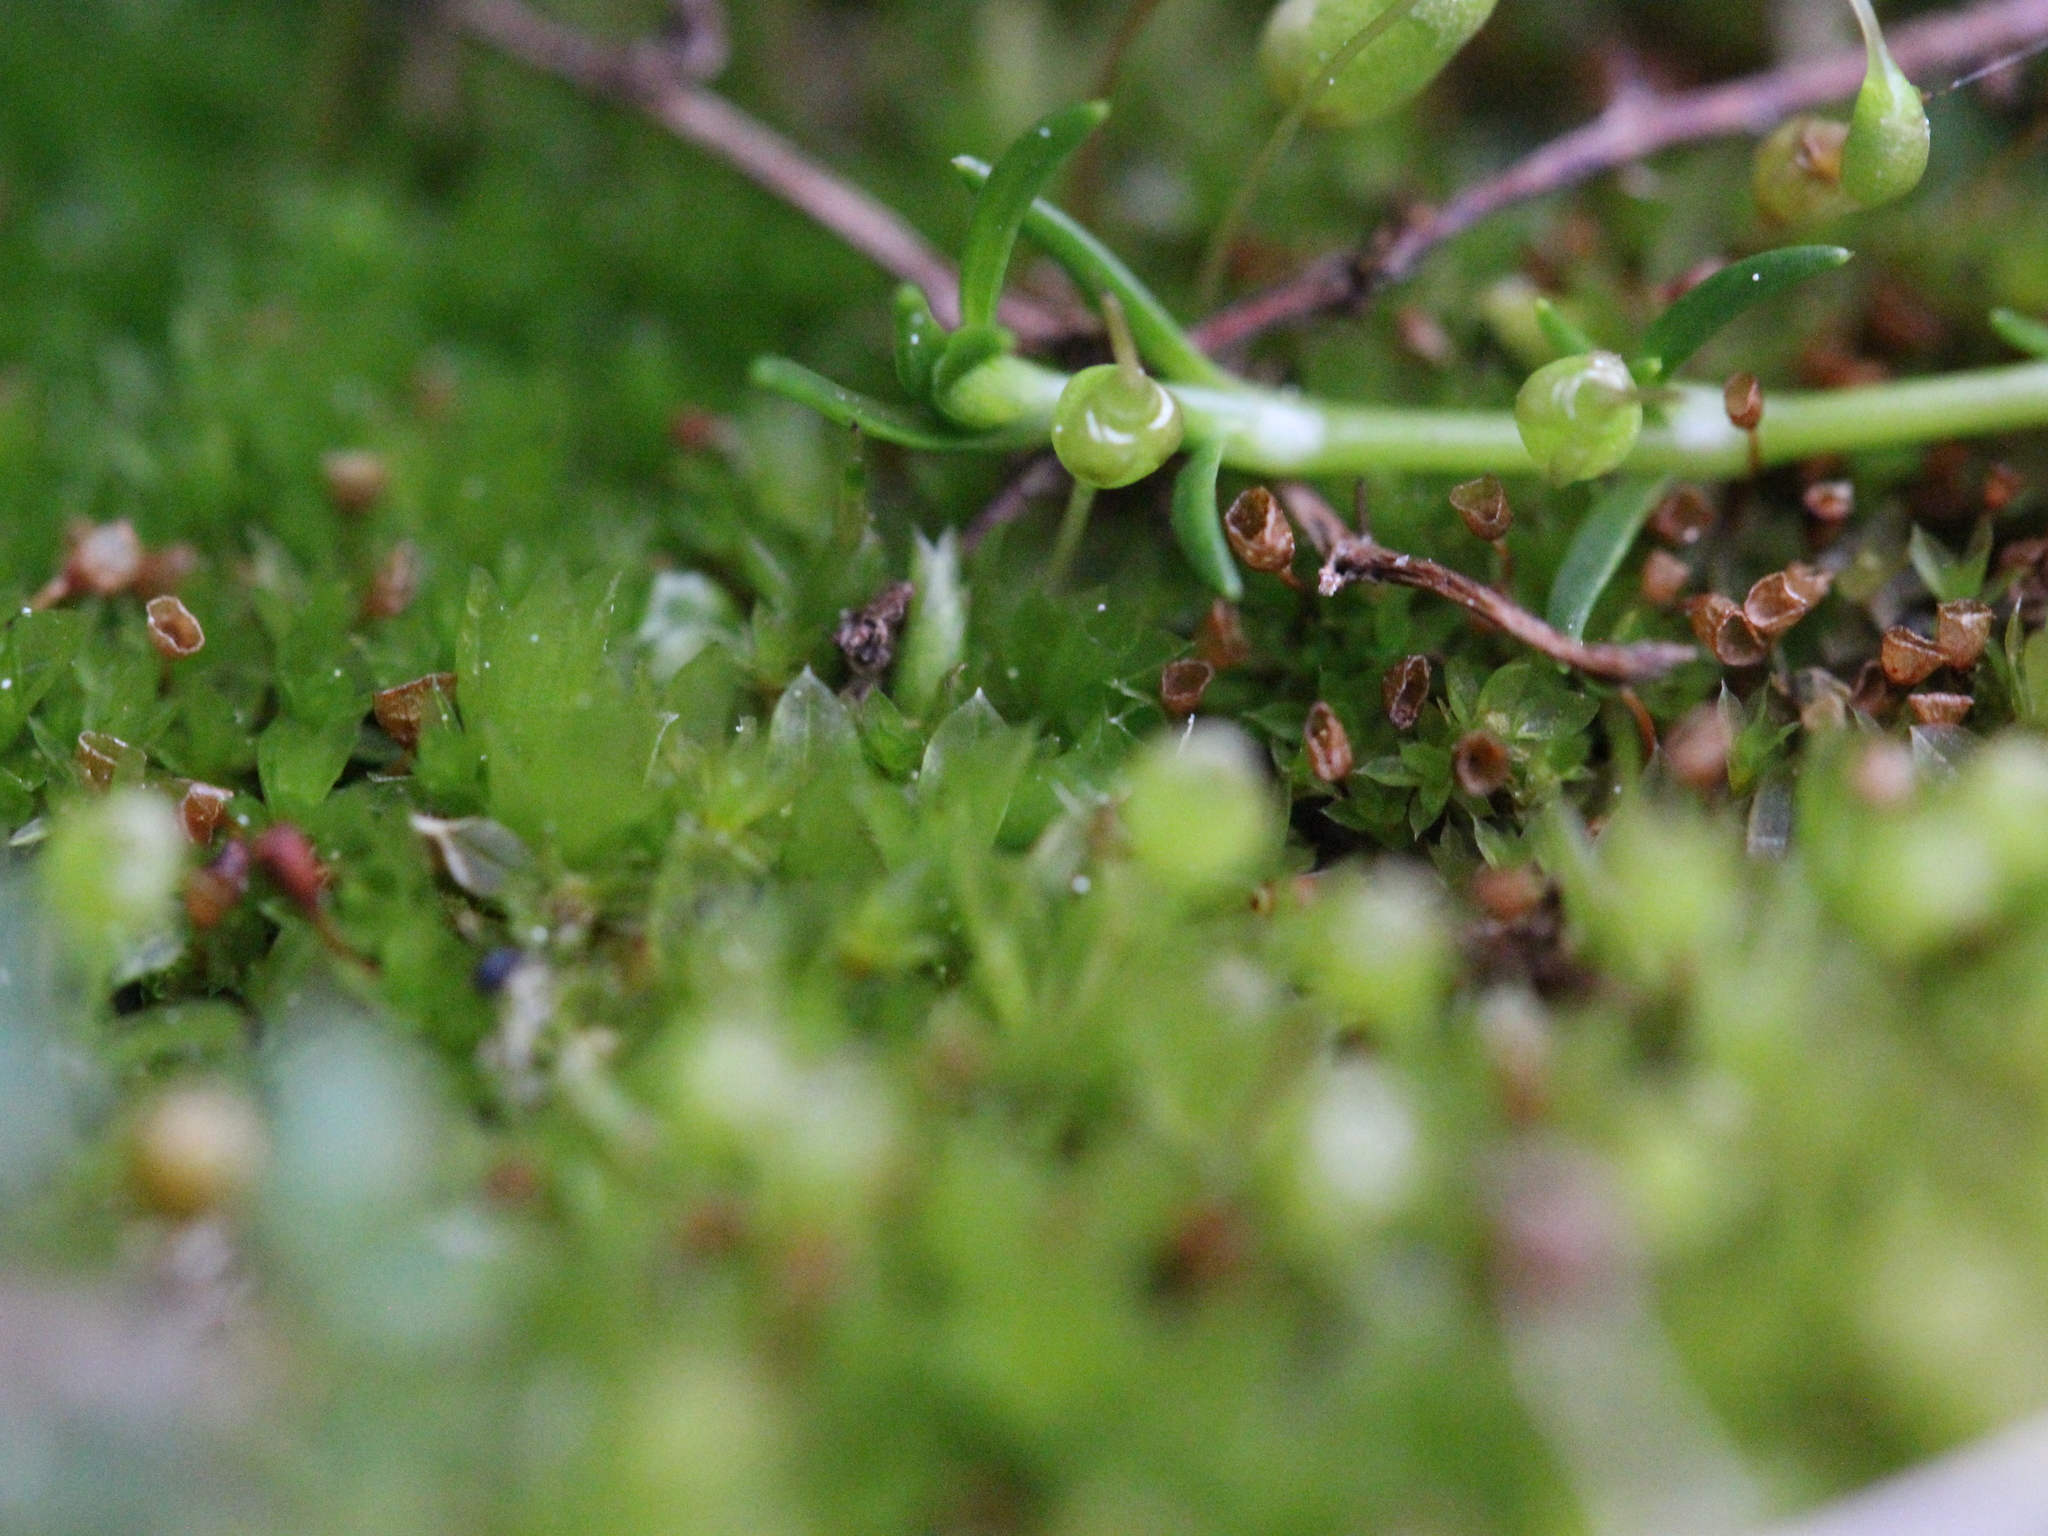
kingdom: Plantae
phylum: Bryophyta
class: Bryopsida
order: Funariales
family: Funariaceae
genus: Funaria
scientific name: Funaria hygrometrica
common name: Common cord moss
